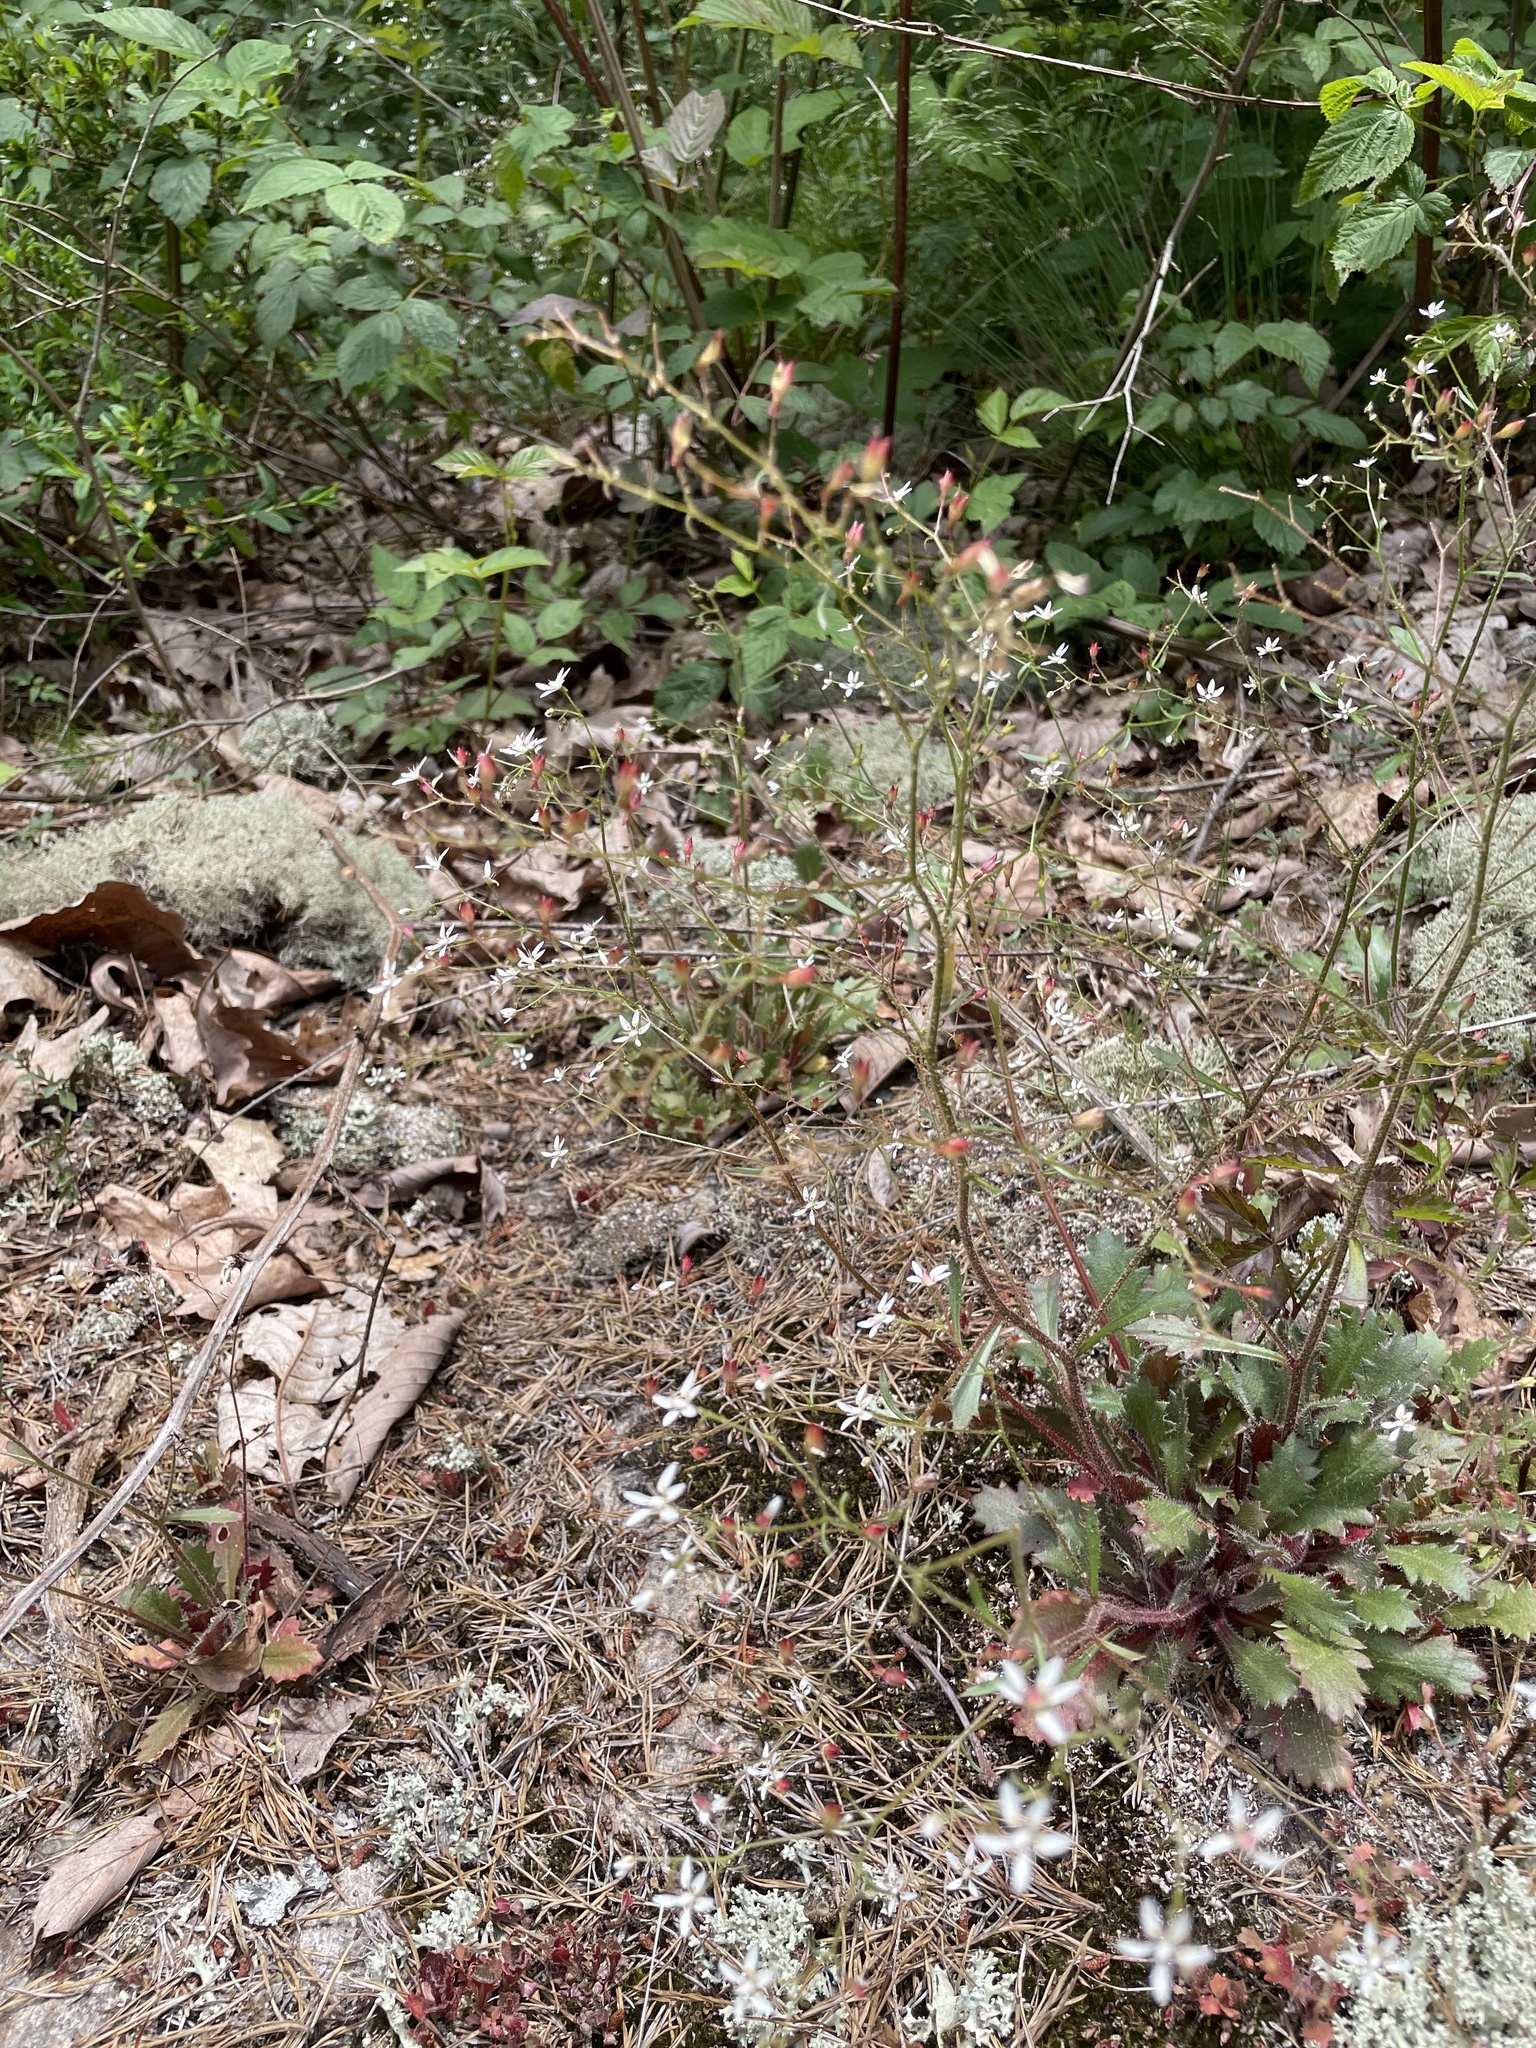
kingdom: Plantae
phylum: Tracheophyta
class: Magnoliopsida
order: Saxifragales
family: Saxifragaceae
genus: Micranthes
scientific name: Micranthes petiolaris
